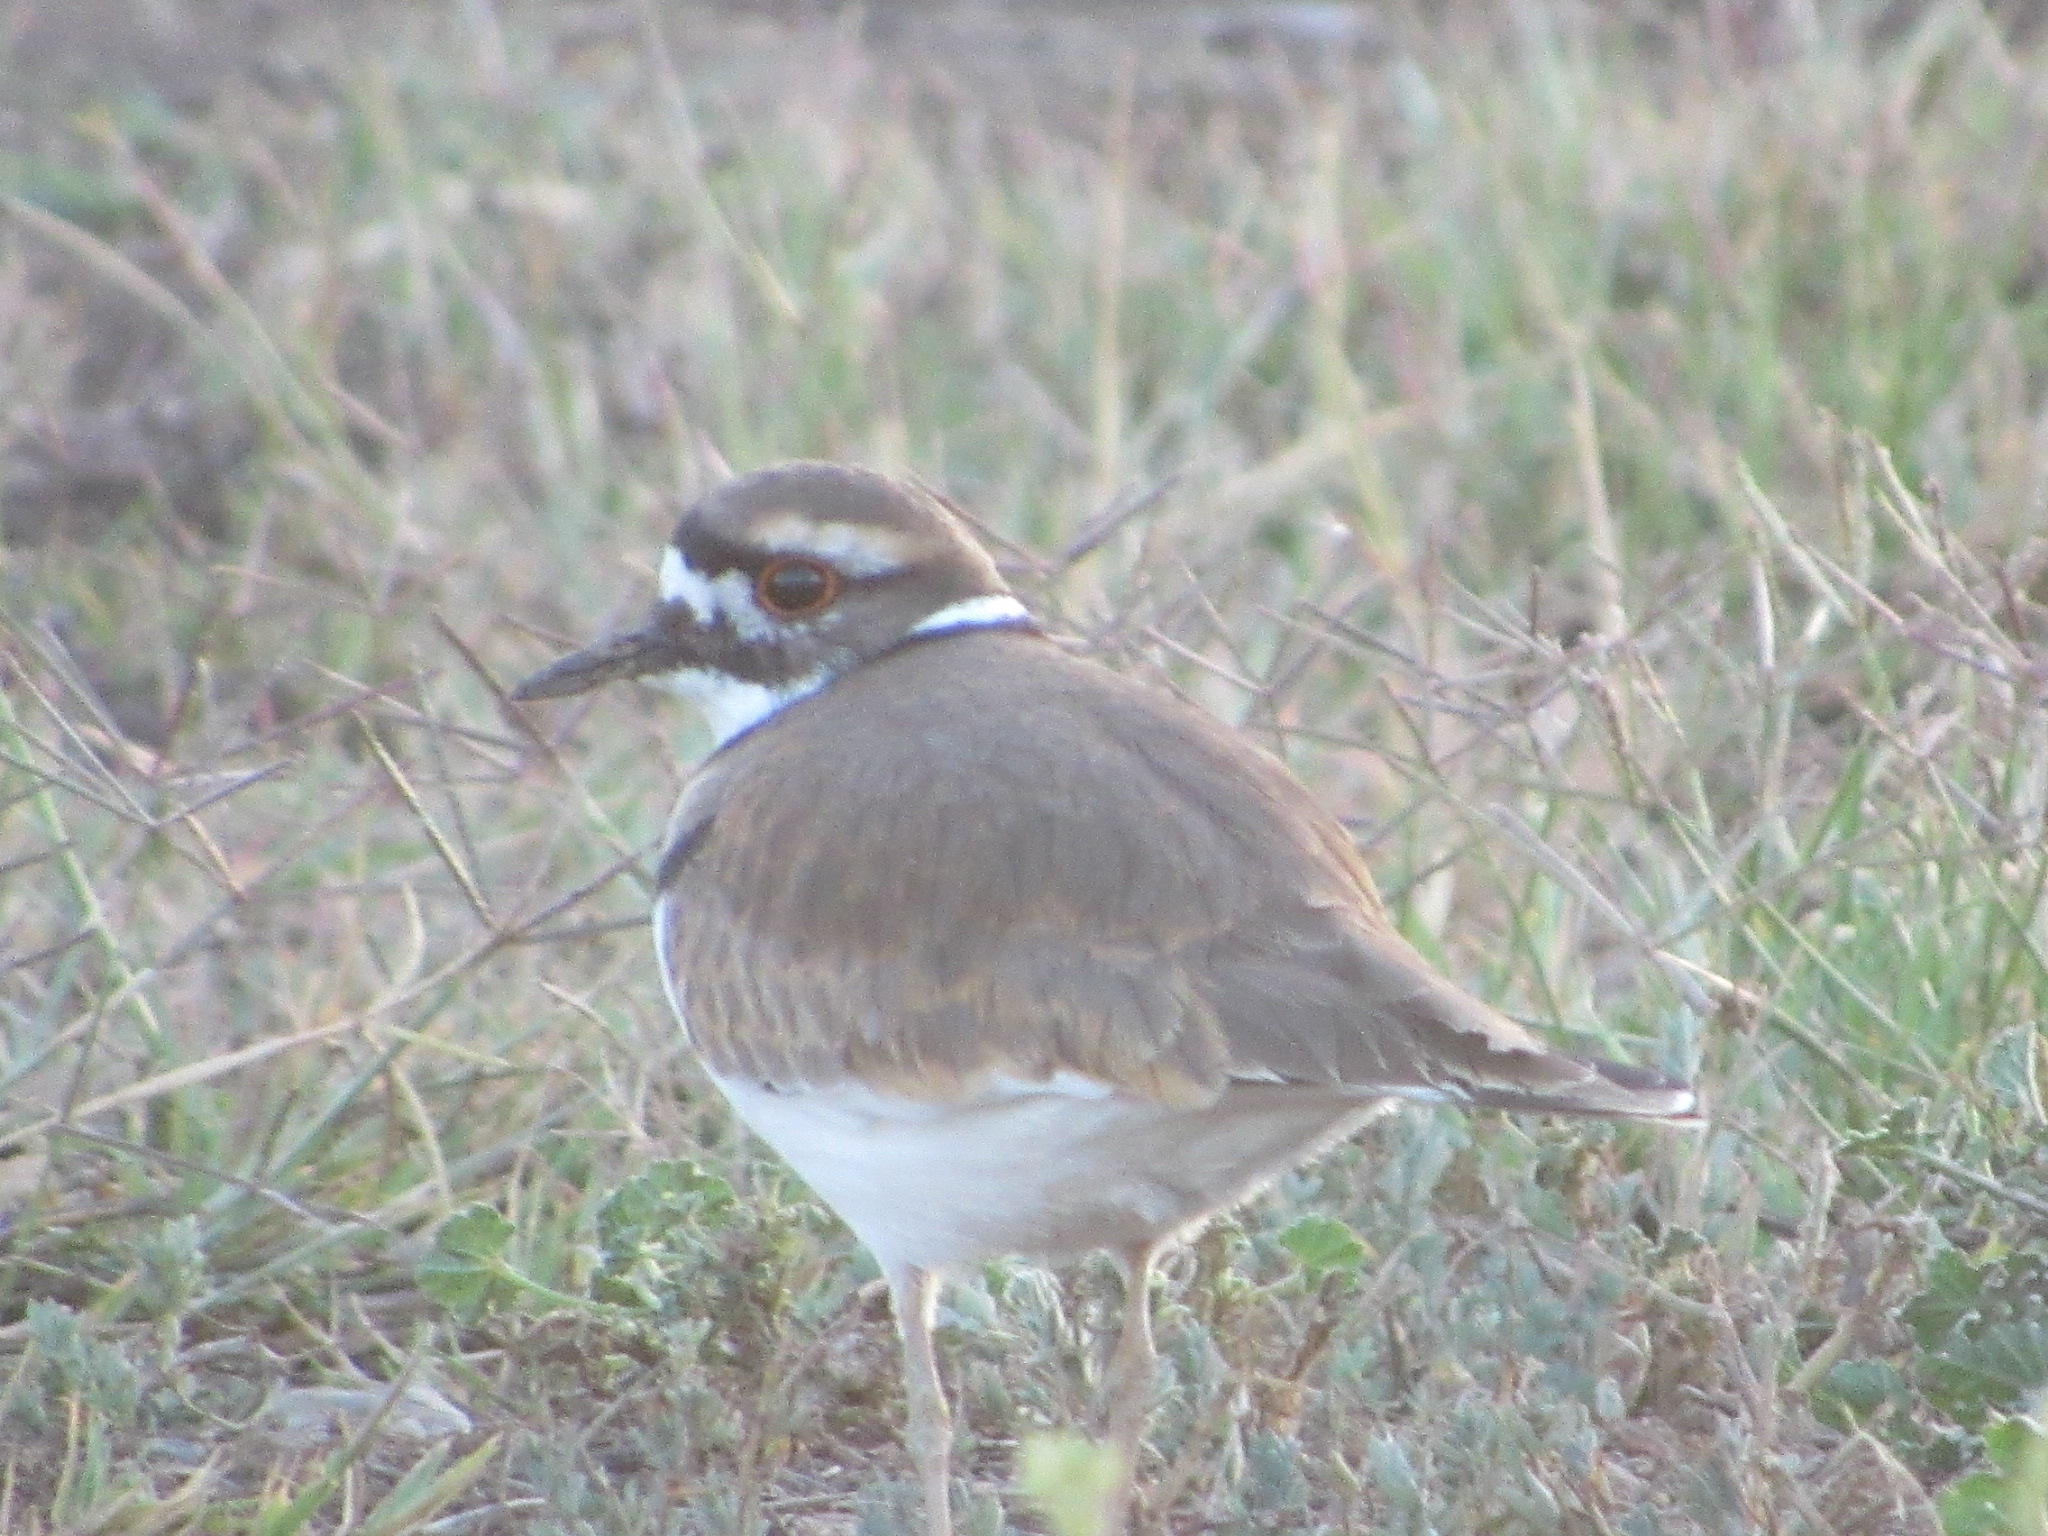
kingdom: Animalia
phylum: Chordata
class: Aves
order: Charadriiformes
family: Charadriidae
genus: Charadrius
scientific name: Charadrius vociferus
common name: Killdeer
